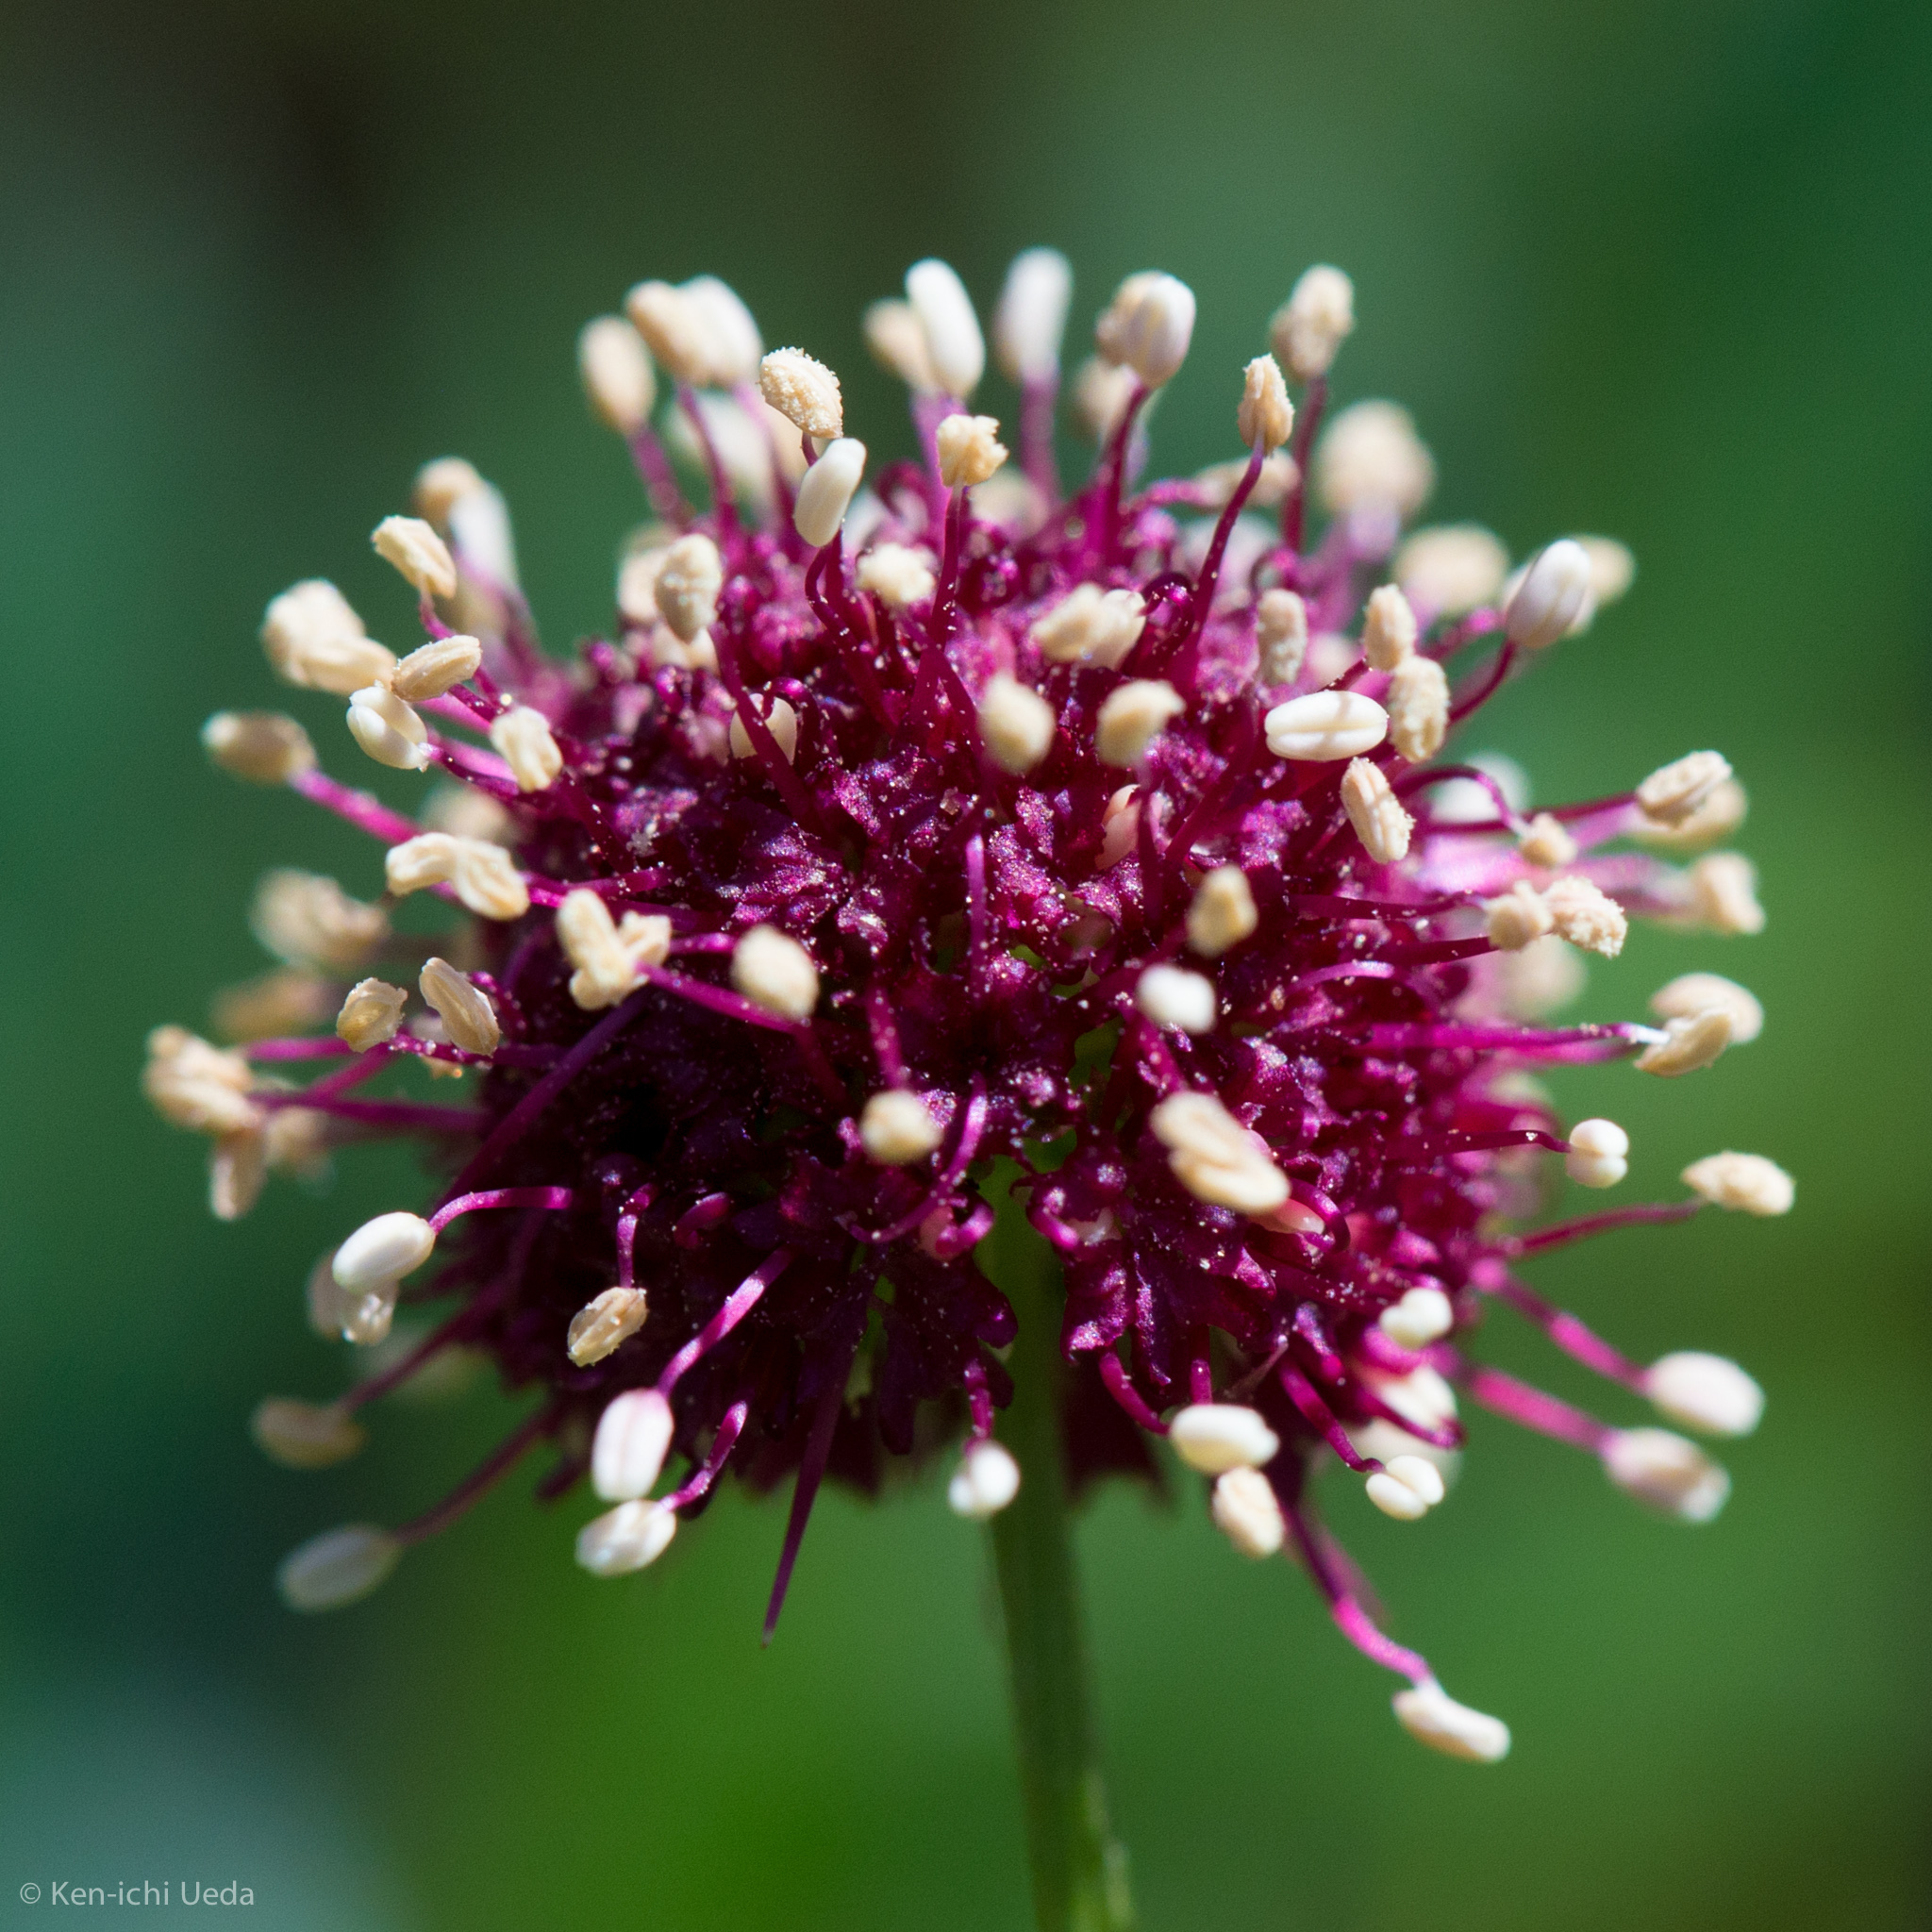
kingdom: Plantae
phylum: Tracheophyta
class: Magnoliopsida
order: Apiales
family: Apiaceae
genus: Sanicula
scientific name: Sanicula bipinnatifida
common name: Shoe-buttons
